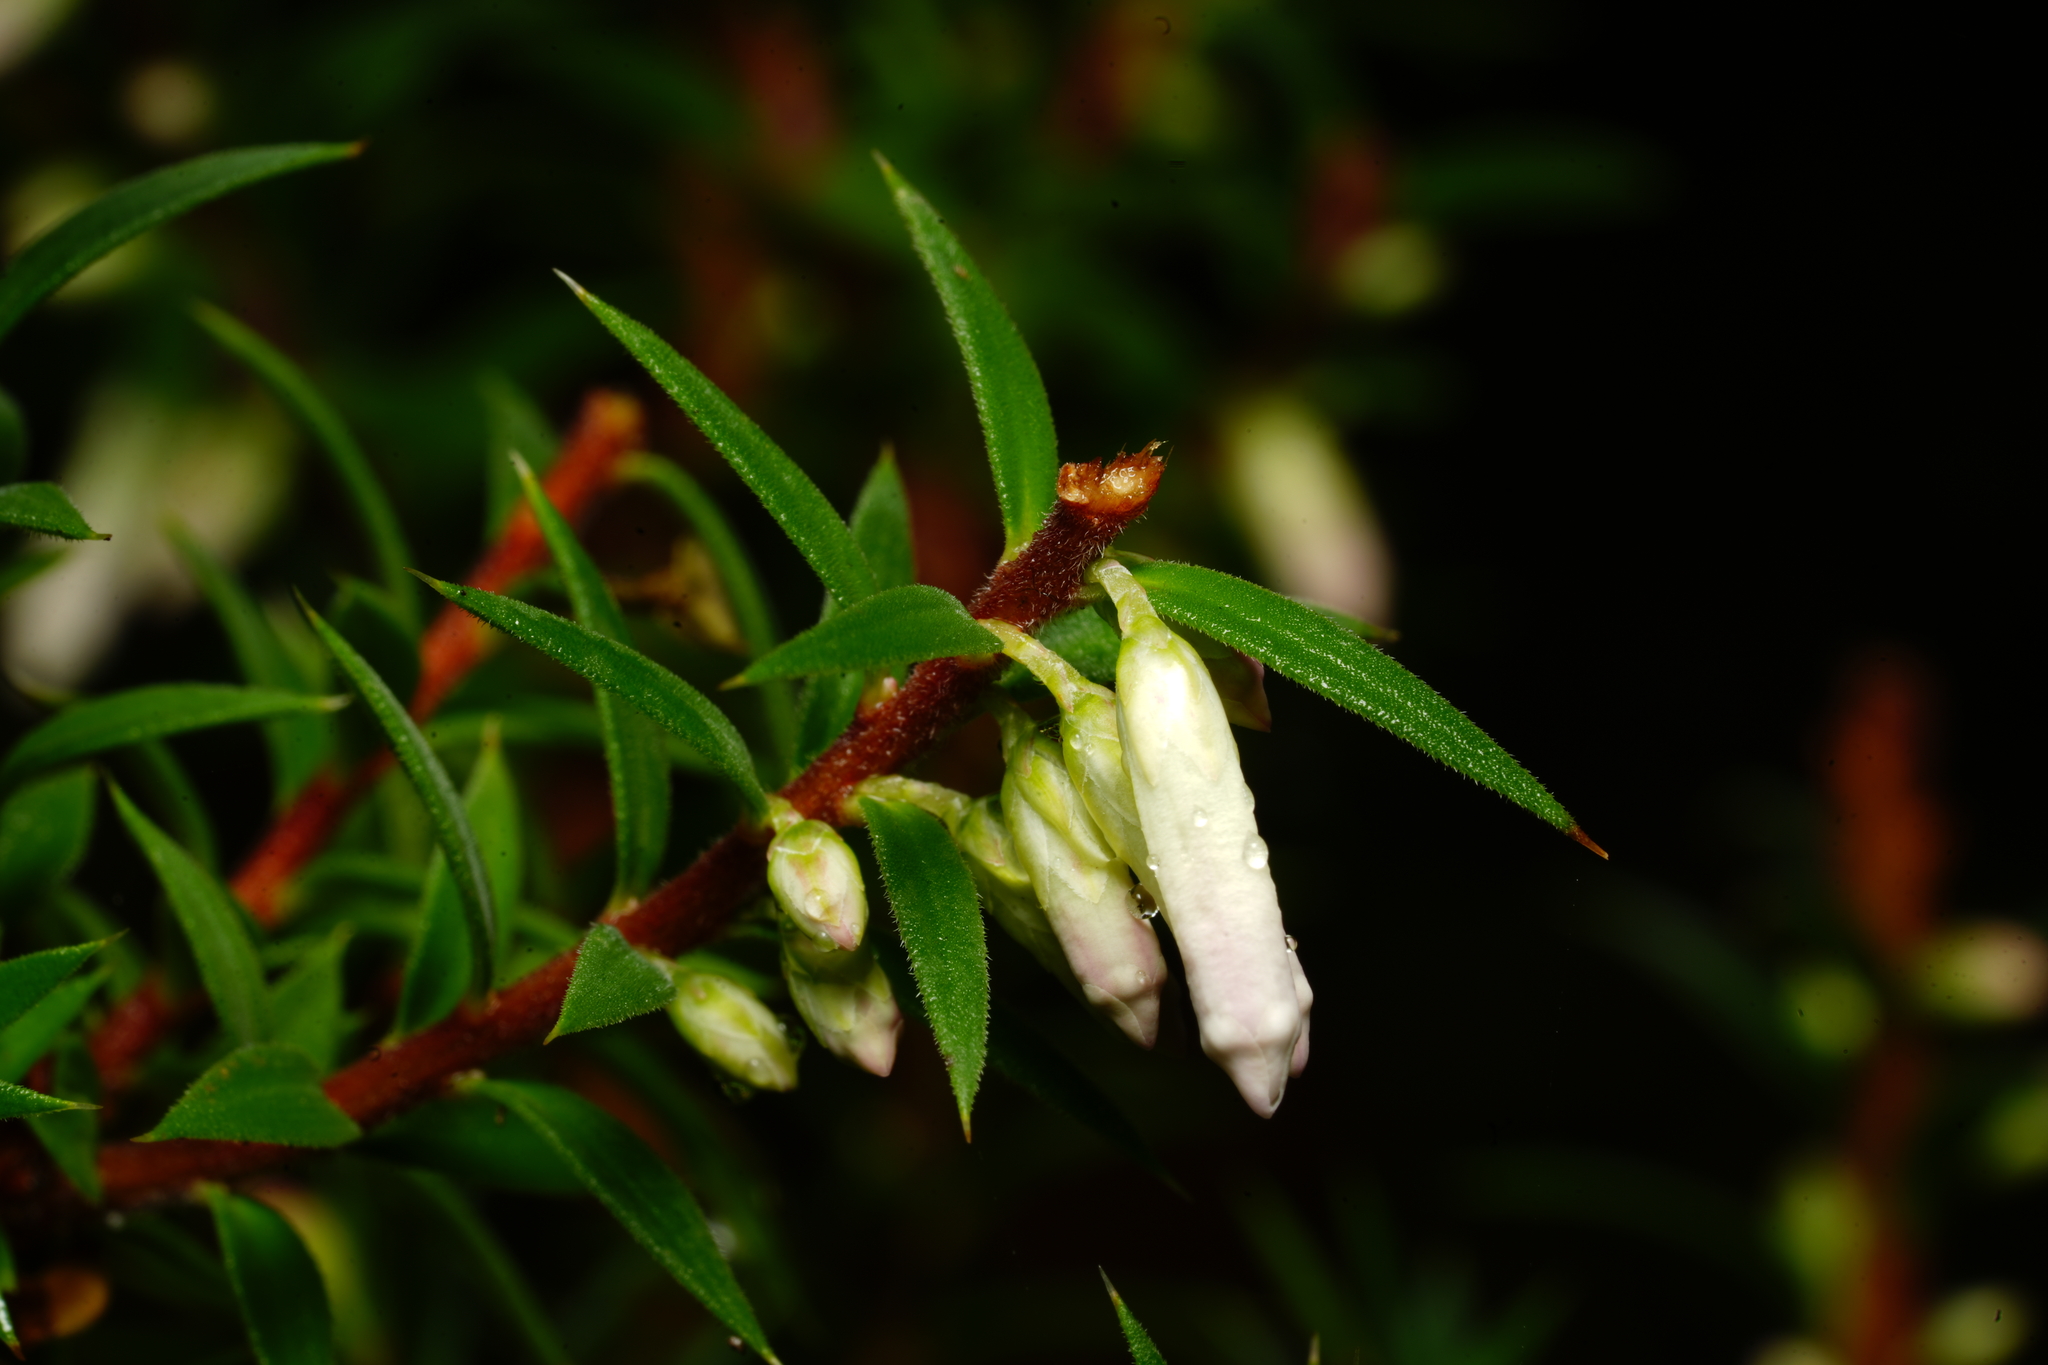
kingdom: Plantae
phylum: Tracheophyta
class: Magnoliopsida
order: Ericales
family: Ericaceae
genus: Epacris
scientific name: Epacris impressa
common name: Common-heath
